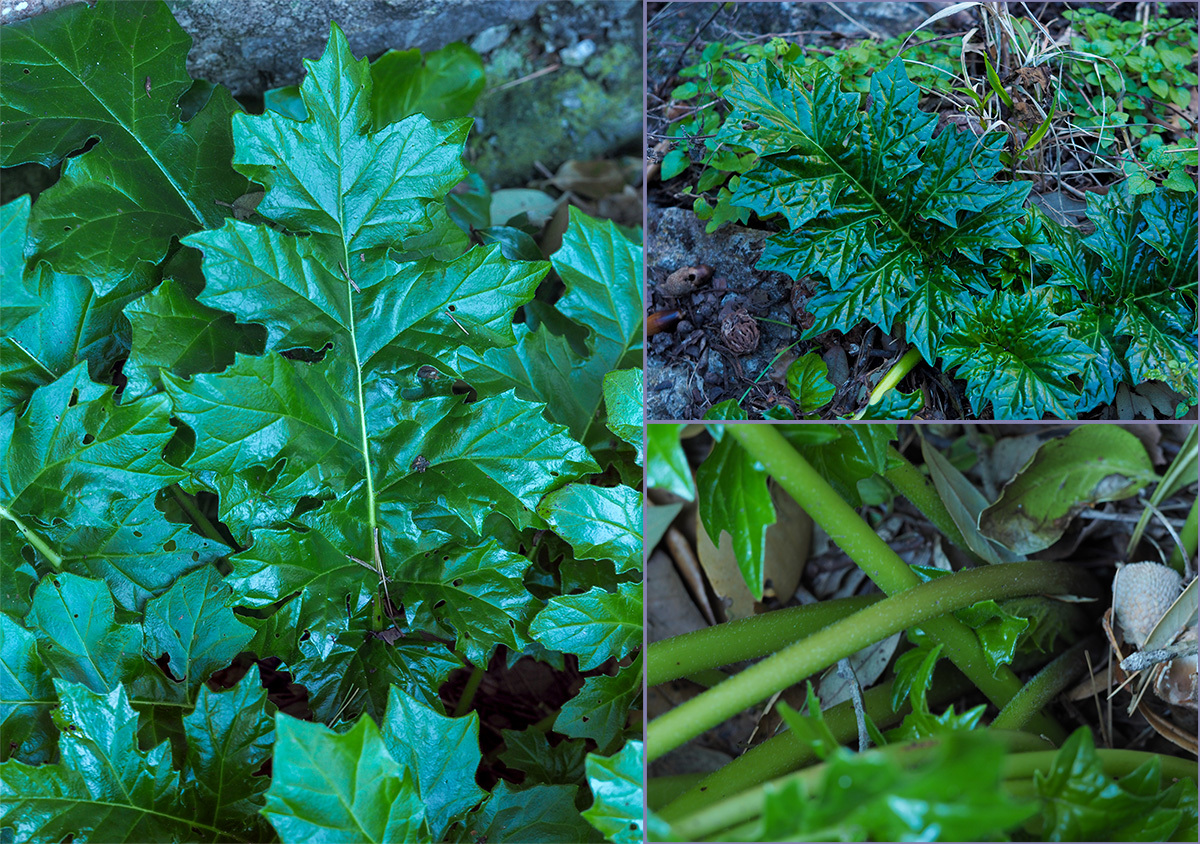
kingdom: Plantae
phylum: Tracheophyta
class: Magnoliopsida
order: Lamiales
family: Acanthaceae
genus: Acanthus
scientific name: Acanthus mollis
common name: Bear's-breech
